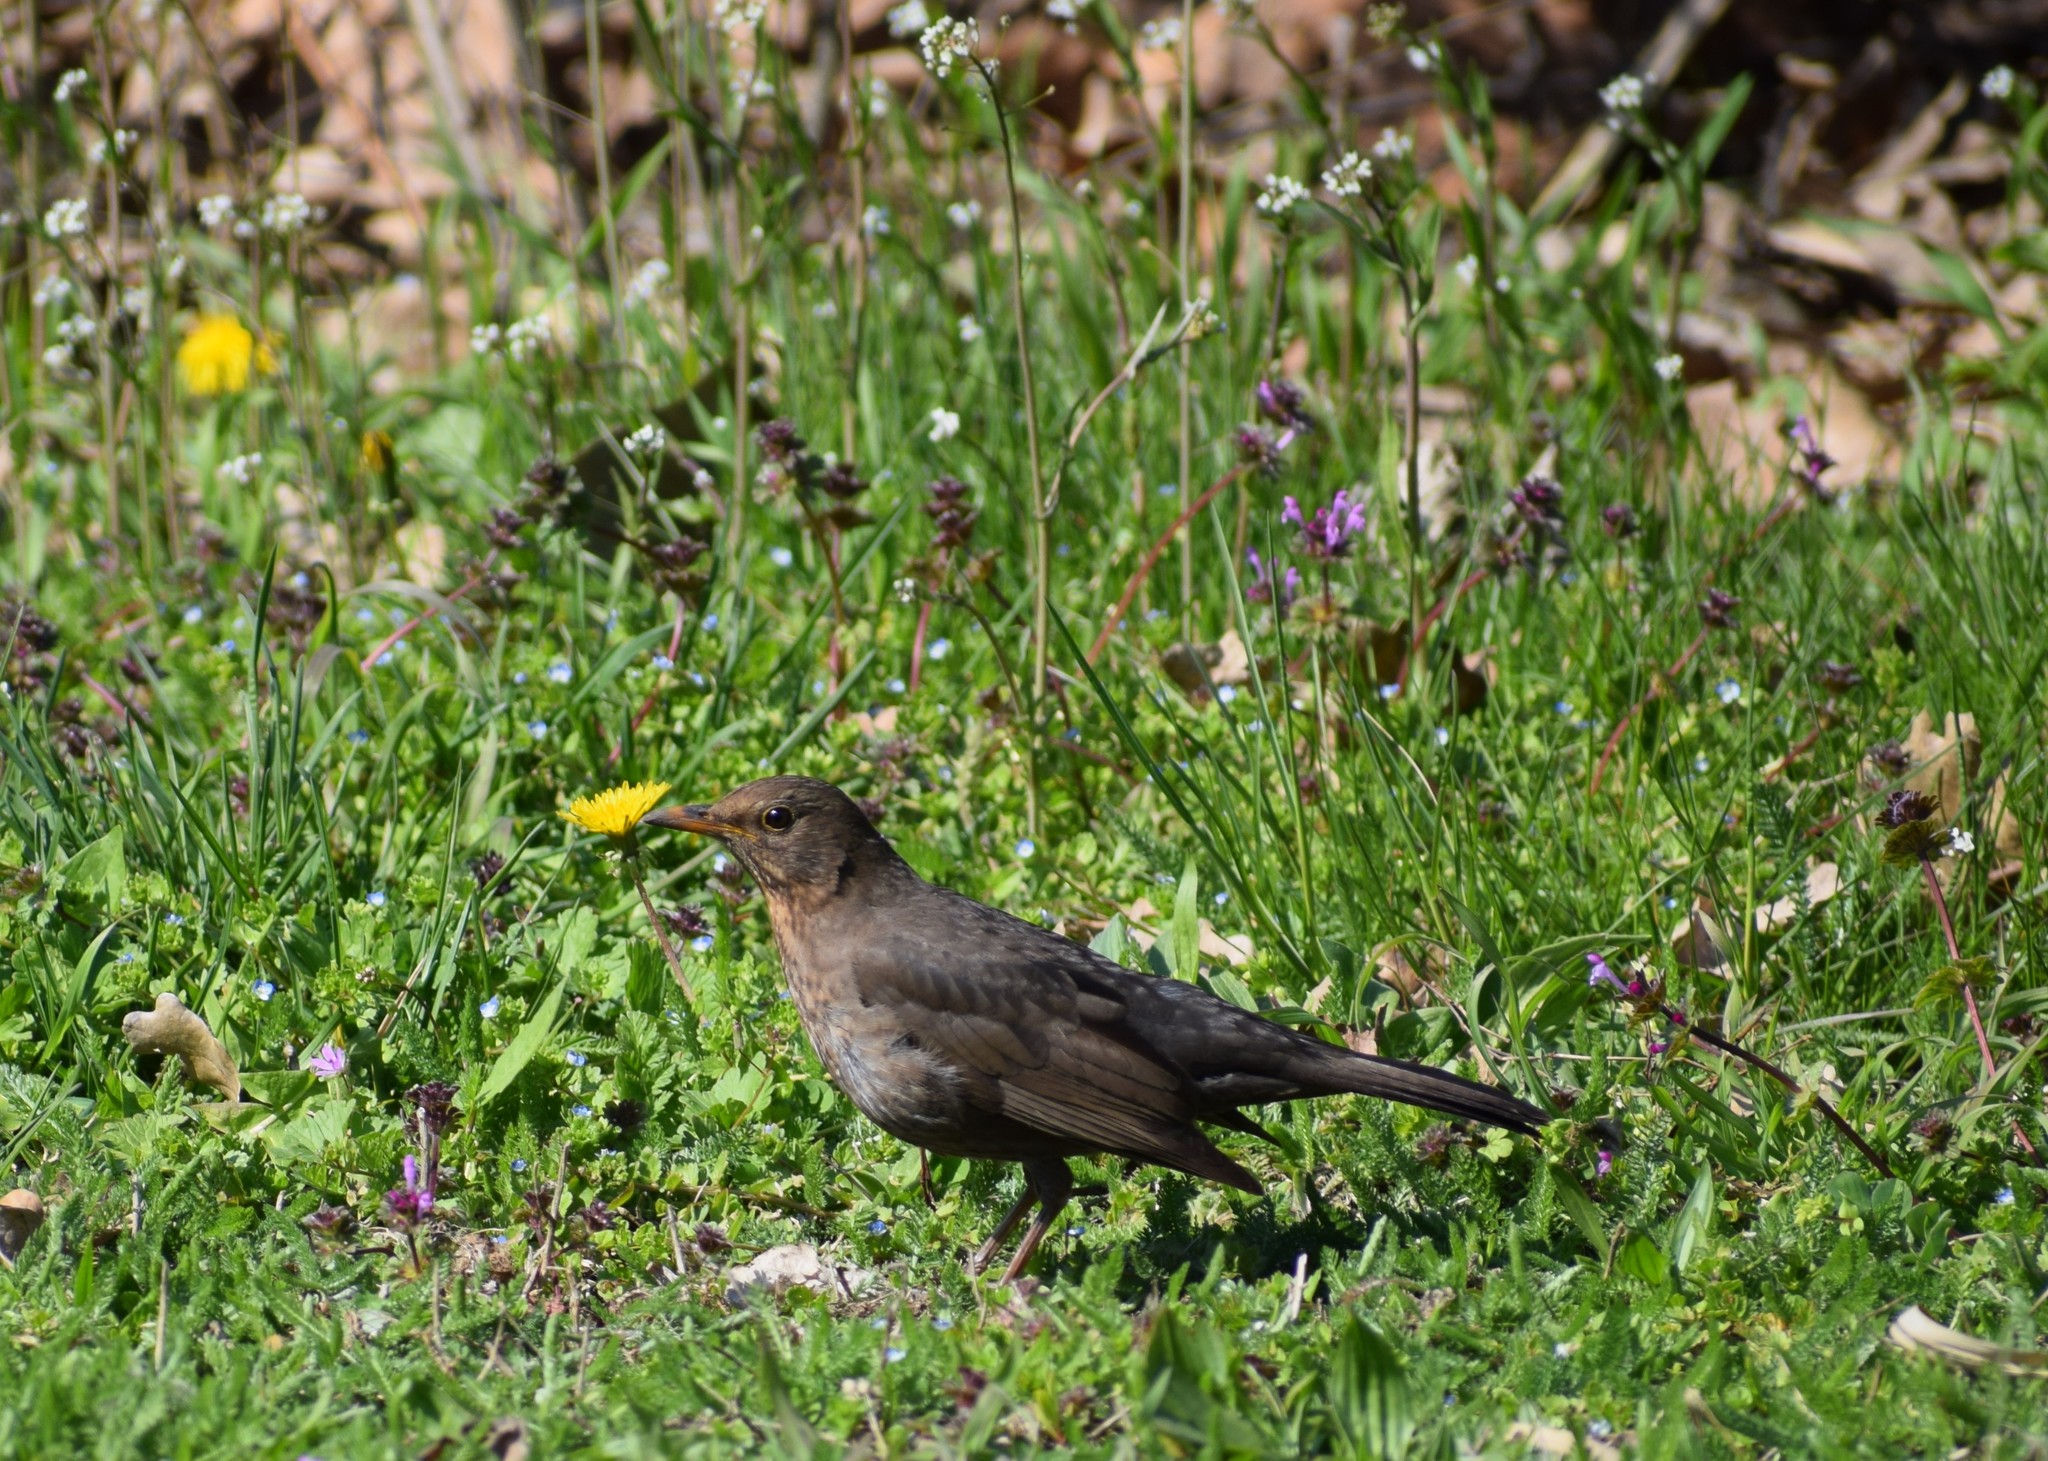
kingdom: Animalia
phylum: Chordata
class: Aves
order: Passeriformes
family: Turdidae
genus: Turdus
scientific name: Turdus merula
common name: Common blackbird
